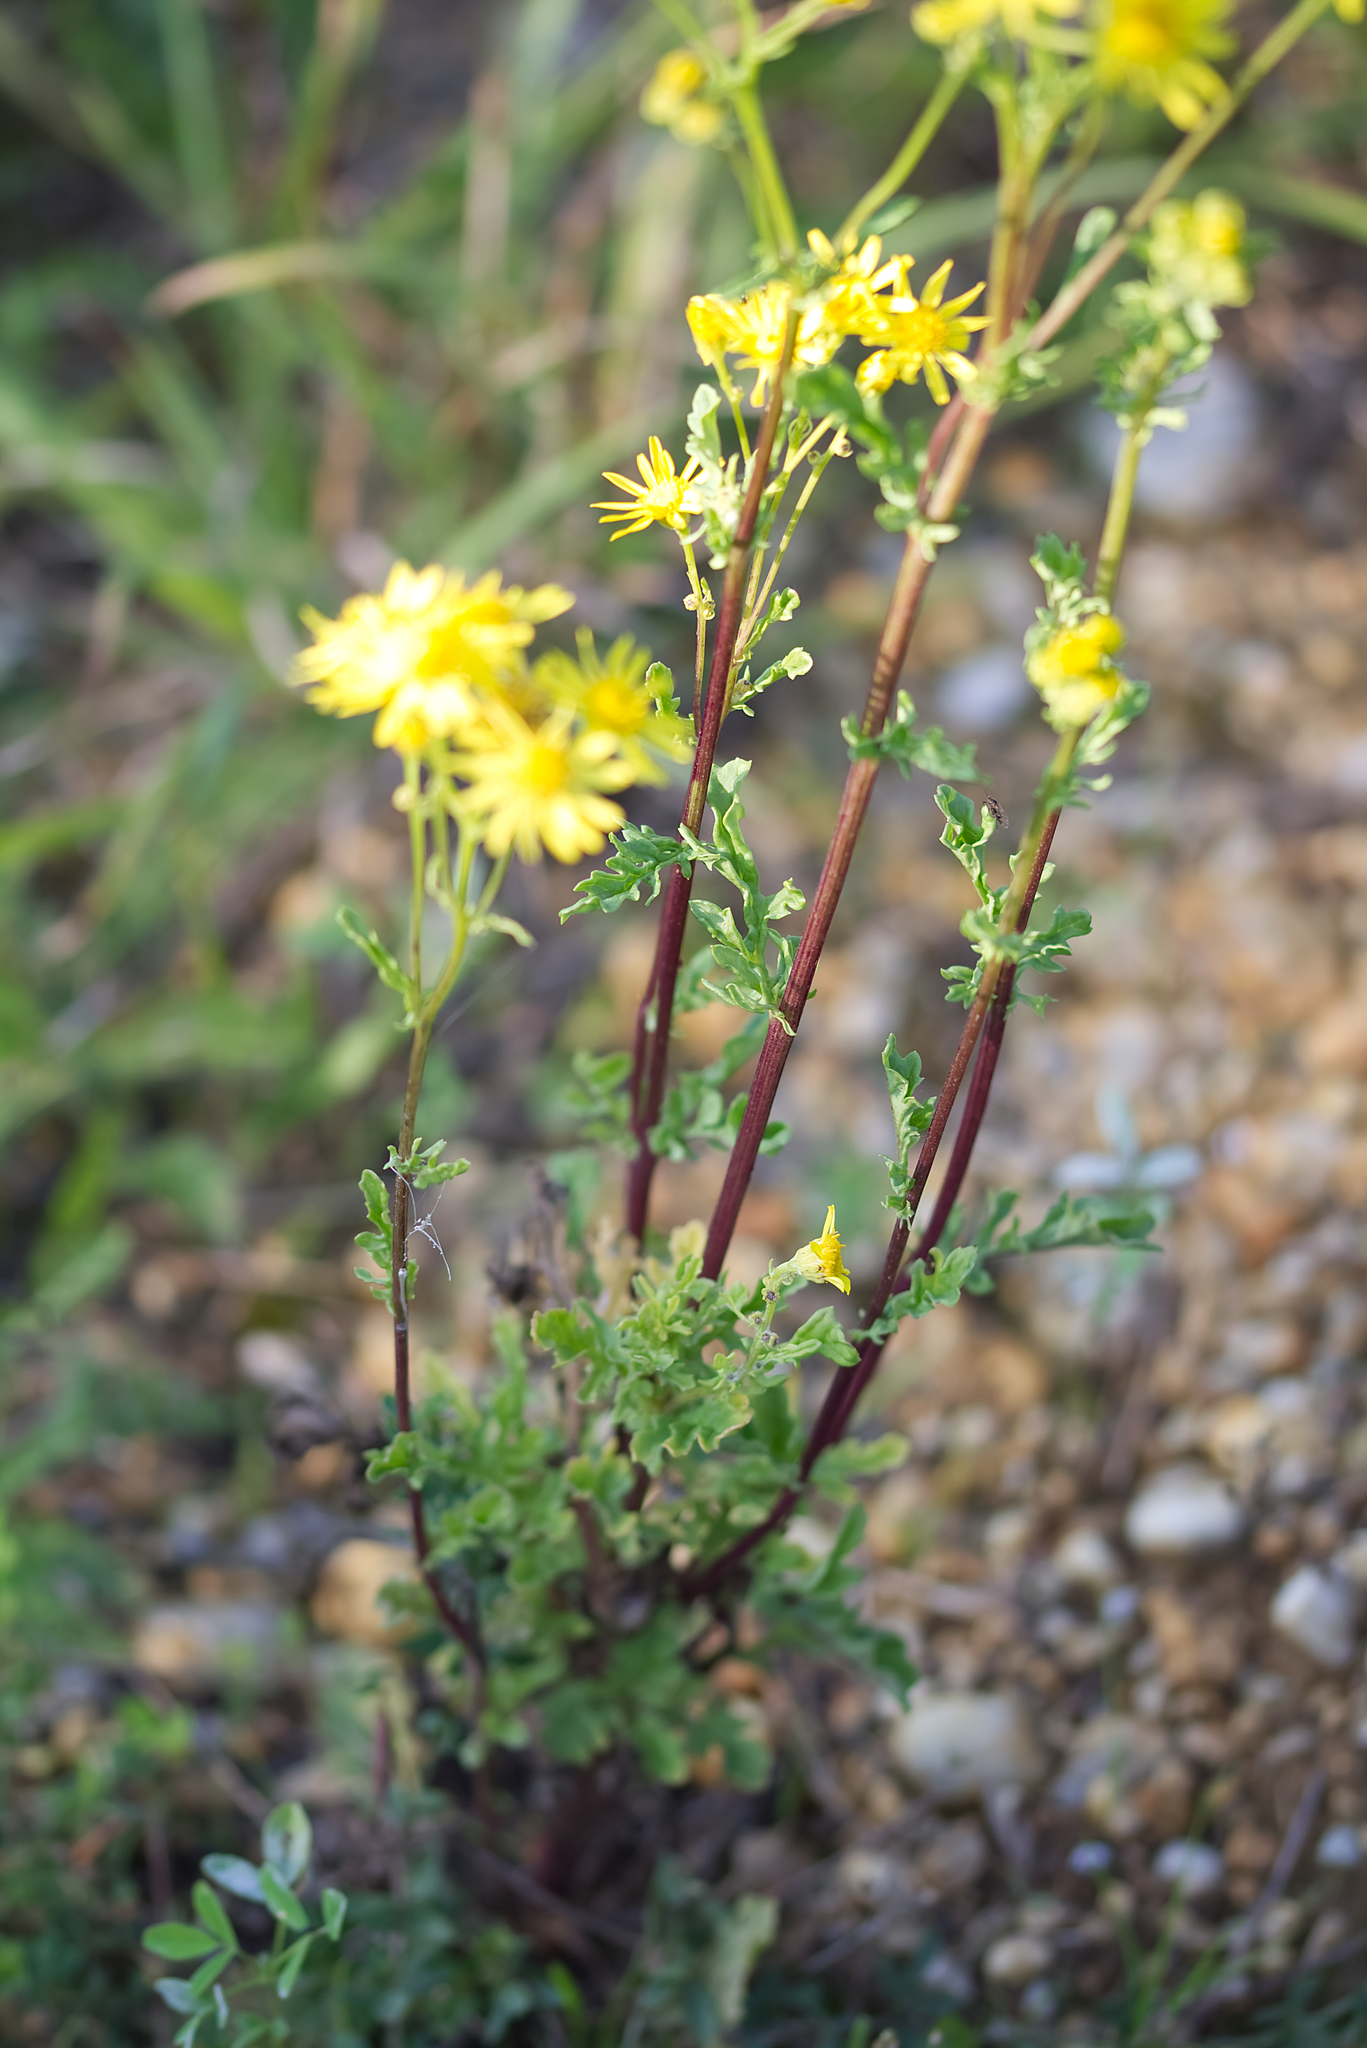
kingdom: Plantae
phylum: Tracheophyta
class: Magnoliopsida
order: Asterales
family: Asteraceae
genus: Jacobaea
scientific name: Jacobaea vulgaris
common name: Stinking willie
